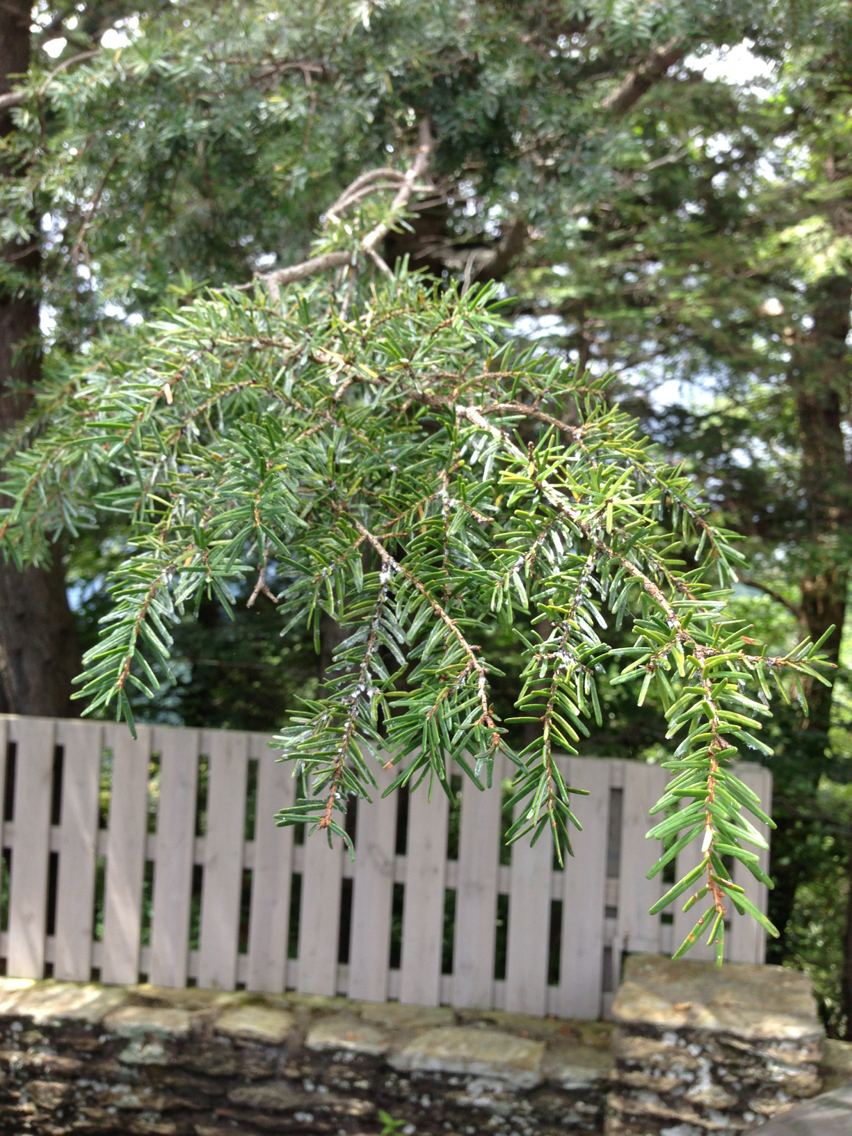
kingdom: Plantae
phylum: Tracheophyta
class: Pinopsida
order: Pinales
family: Pinaceae
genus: Tsuga
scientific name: Tsuga caroliniana
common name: Carolina hemlock
